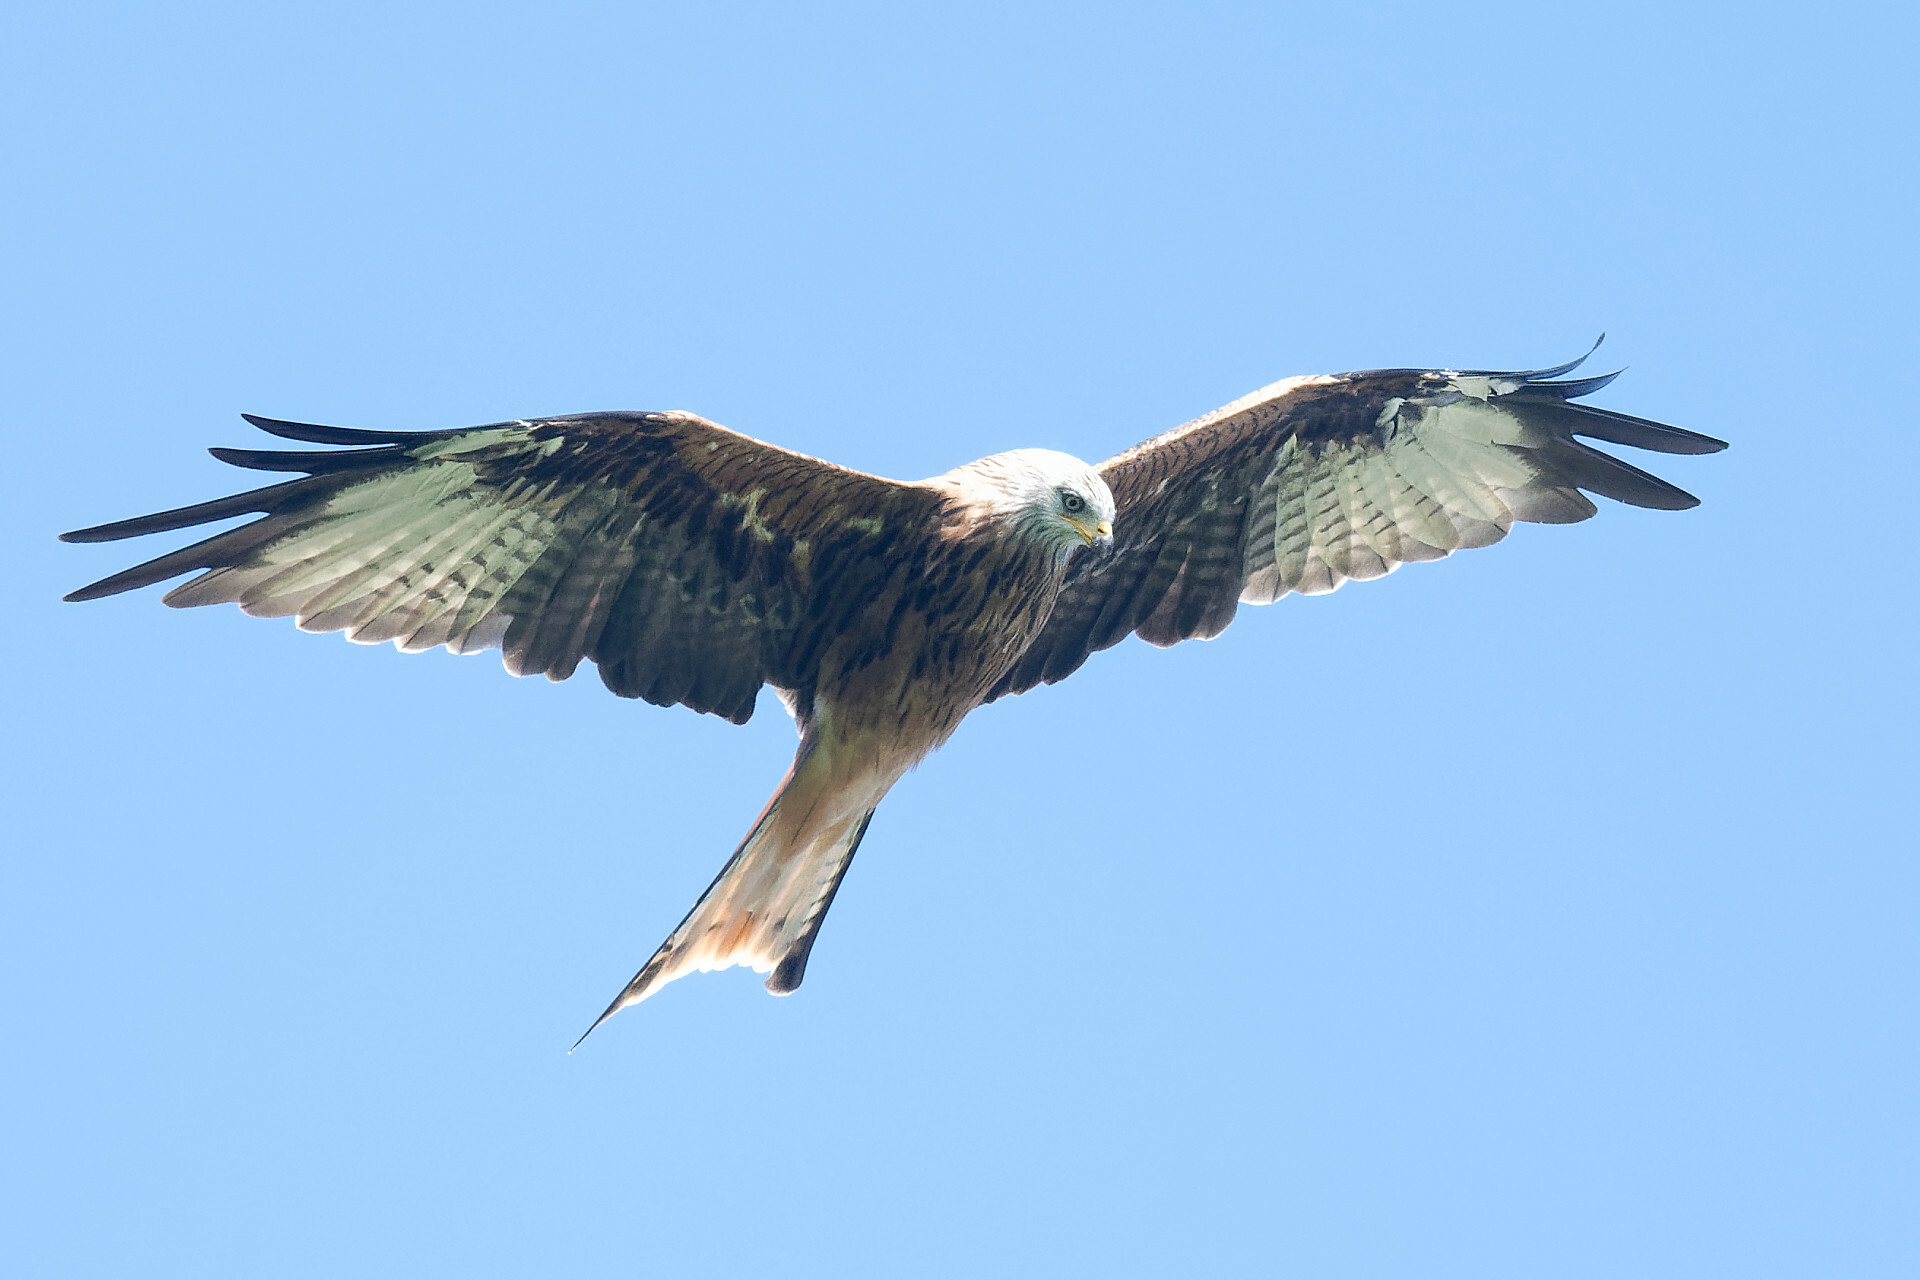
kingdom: Animalia
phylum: Chordata
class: Aves
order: Accipitriformes
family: Accipitridae
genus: Milvus
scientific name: Milvus milvus
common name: Red kite
